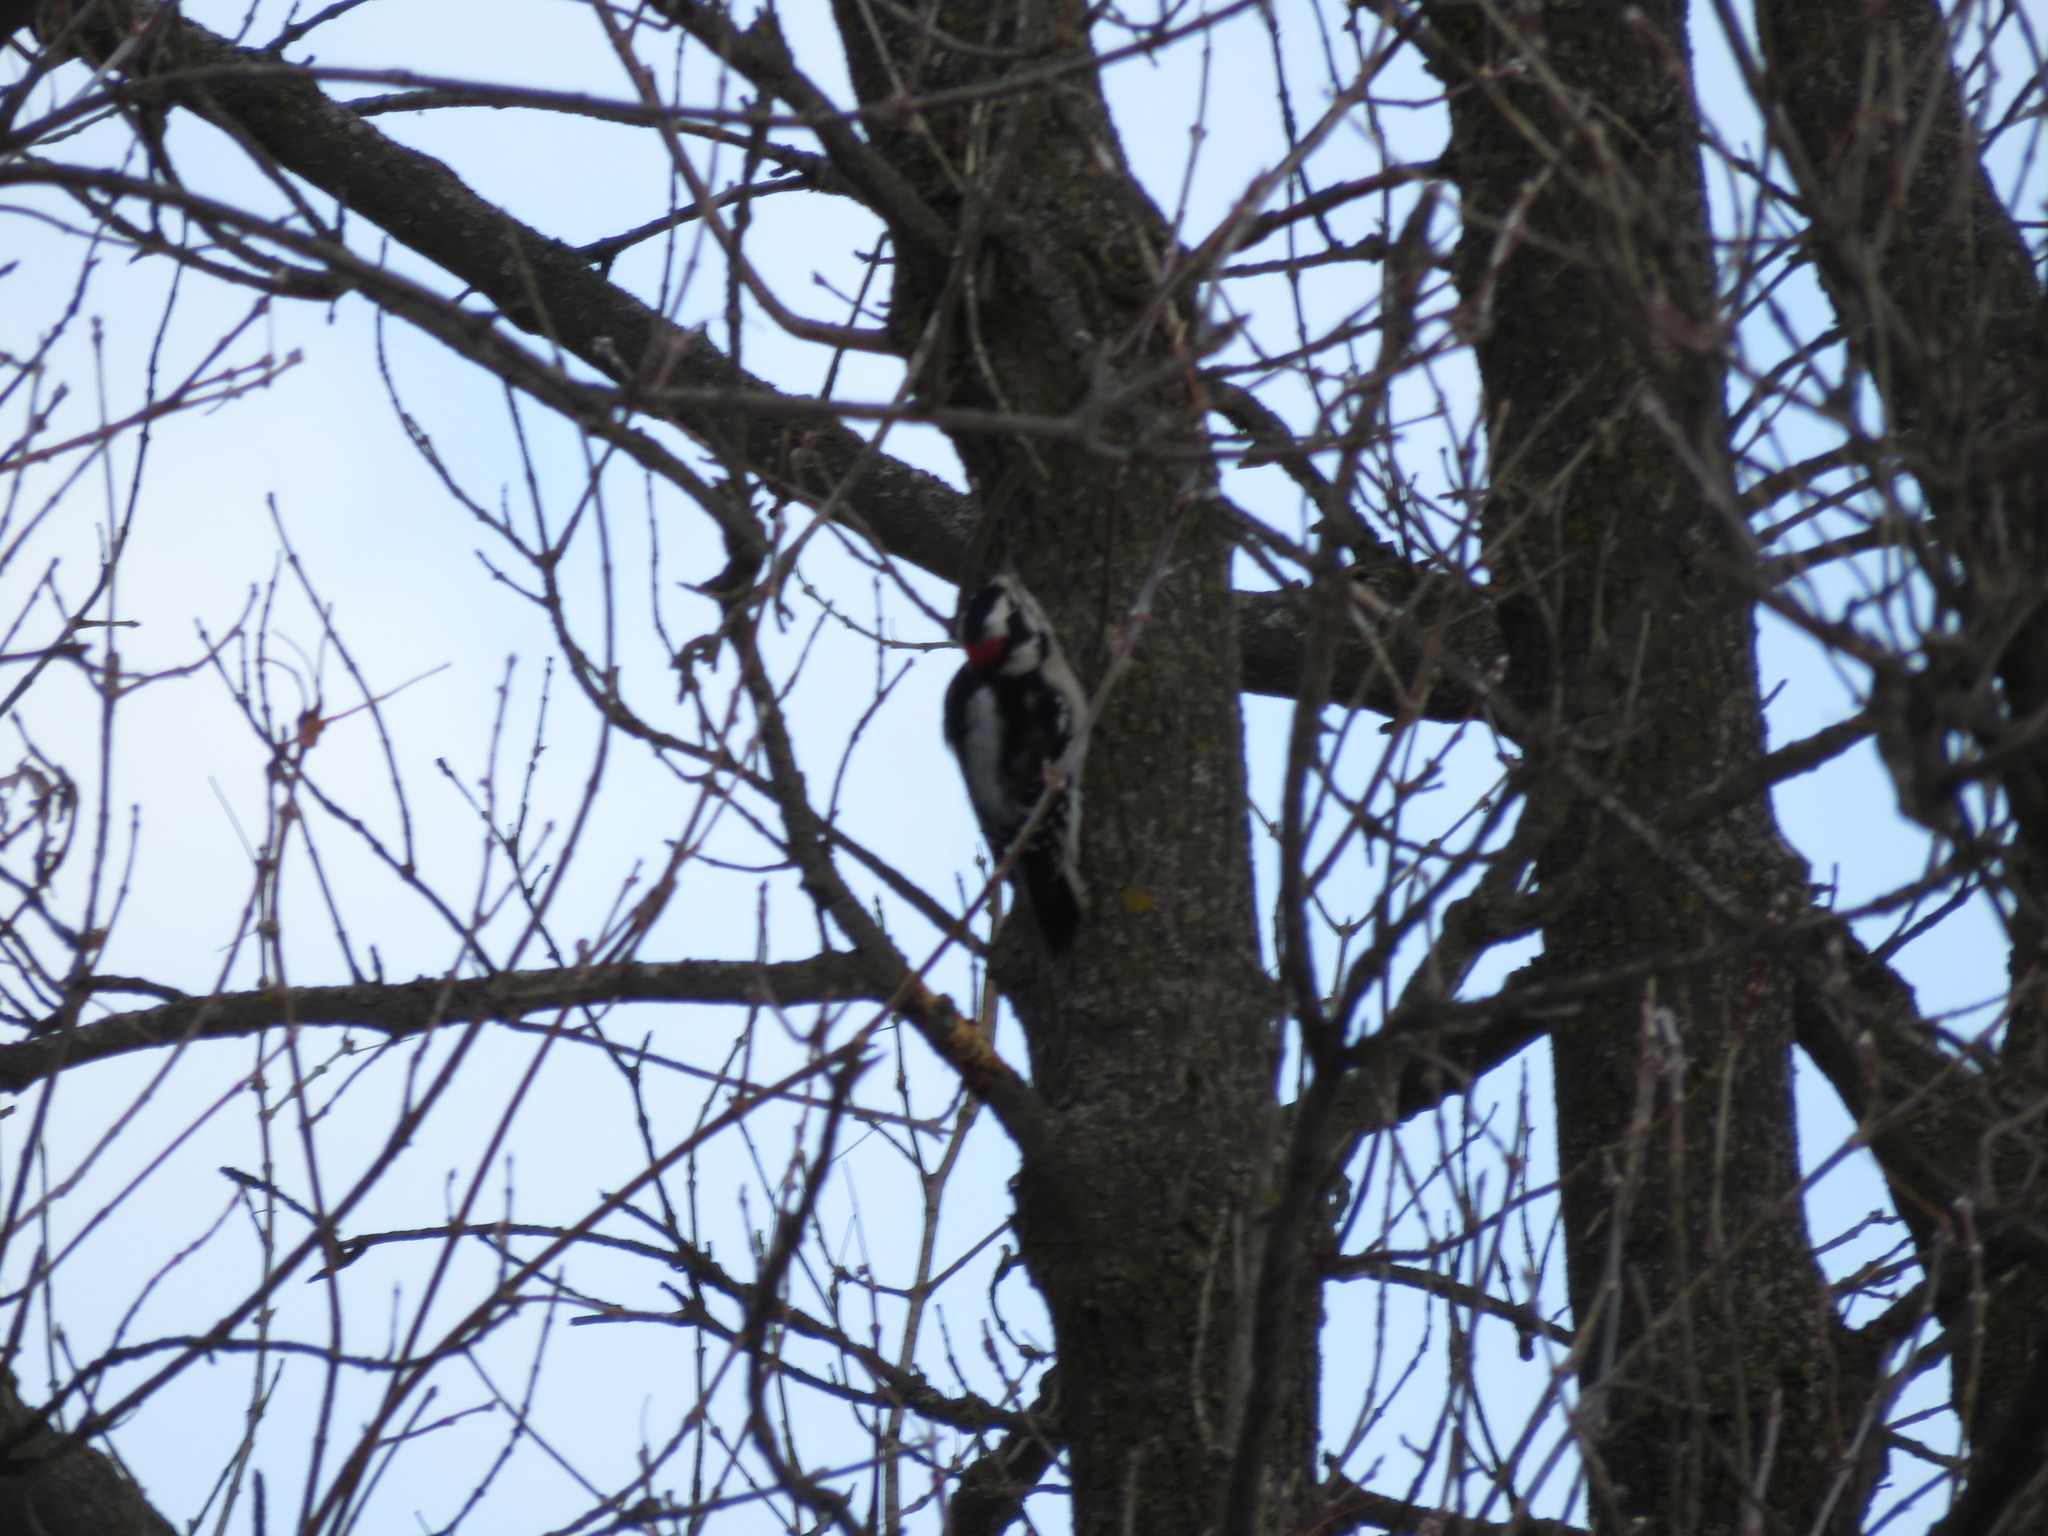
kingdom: Animalia
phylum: Chordata
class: Aves
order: Piciformes
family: Picidae
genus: Dryobates
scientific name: Dryobates pubescens
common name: Downy woodpecker
